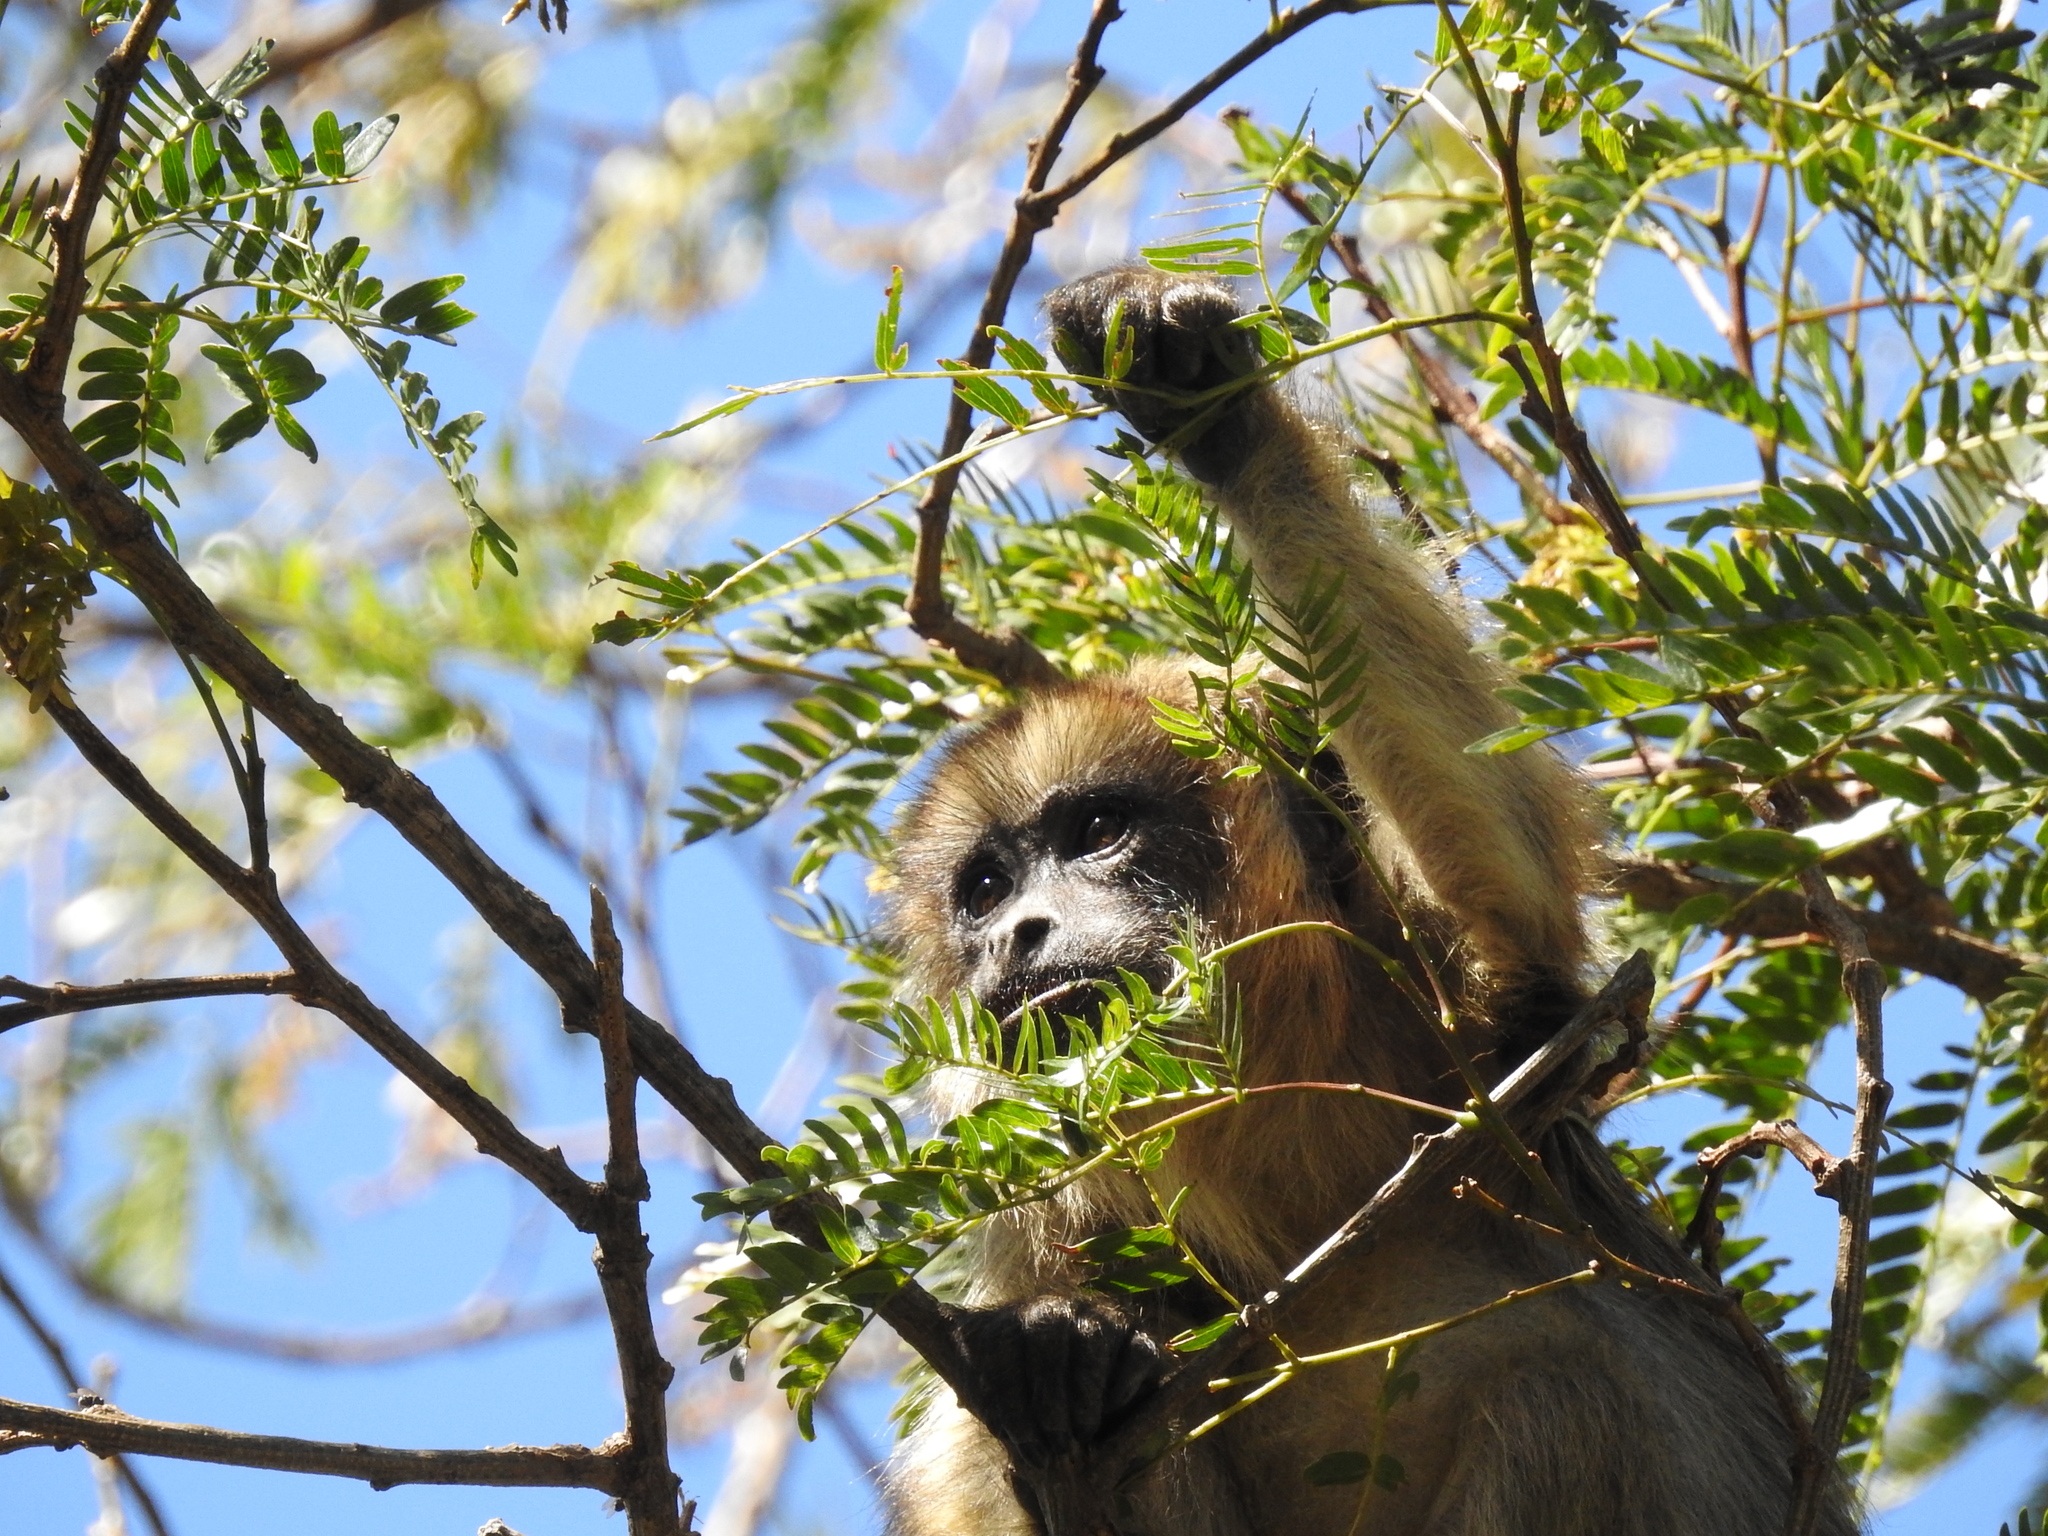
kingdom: Animalia
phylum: Chordata
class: Mammalia
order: Primates
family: Atelidae
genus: Alouatta
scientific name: Alouatta caraya
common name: Black howler
